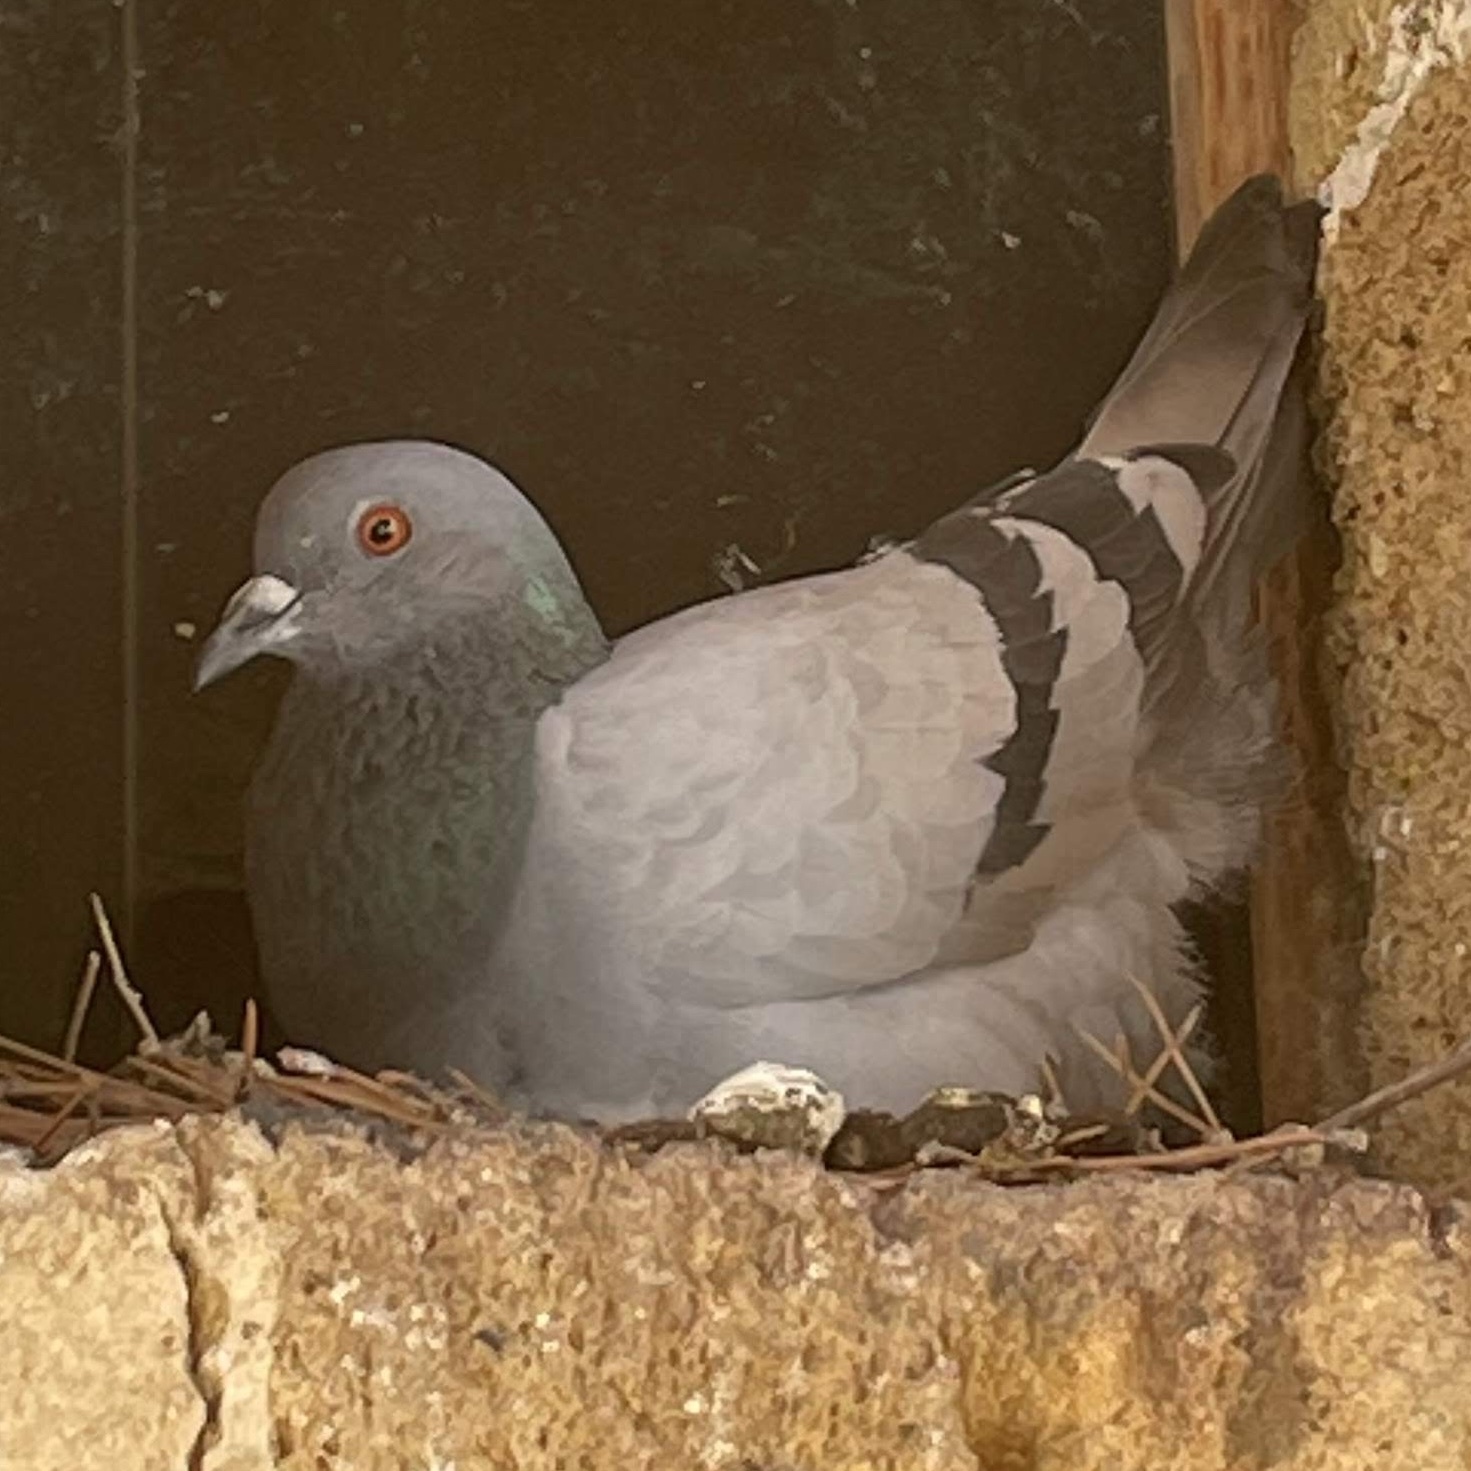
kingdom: Animalia
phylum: Chordata
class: Aves
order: Columbiformes
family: Columbidae
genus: Columba
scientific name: Columba livia
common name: Rock pigeon
